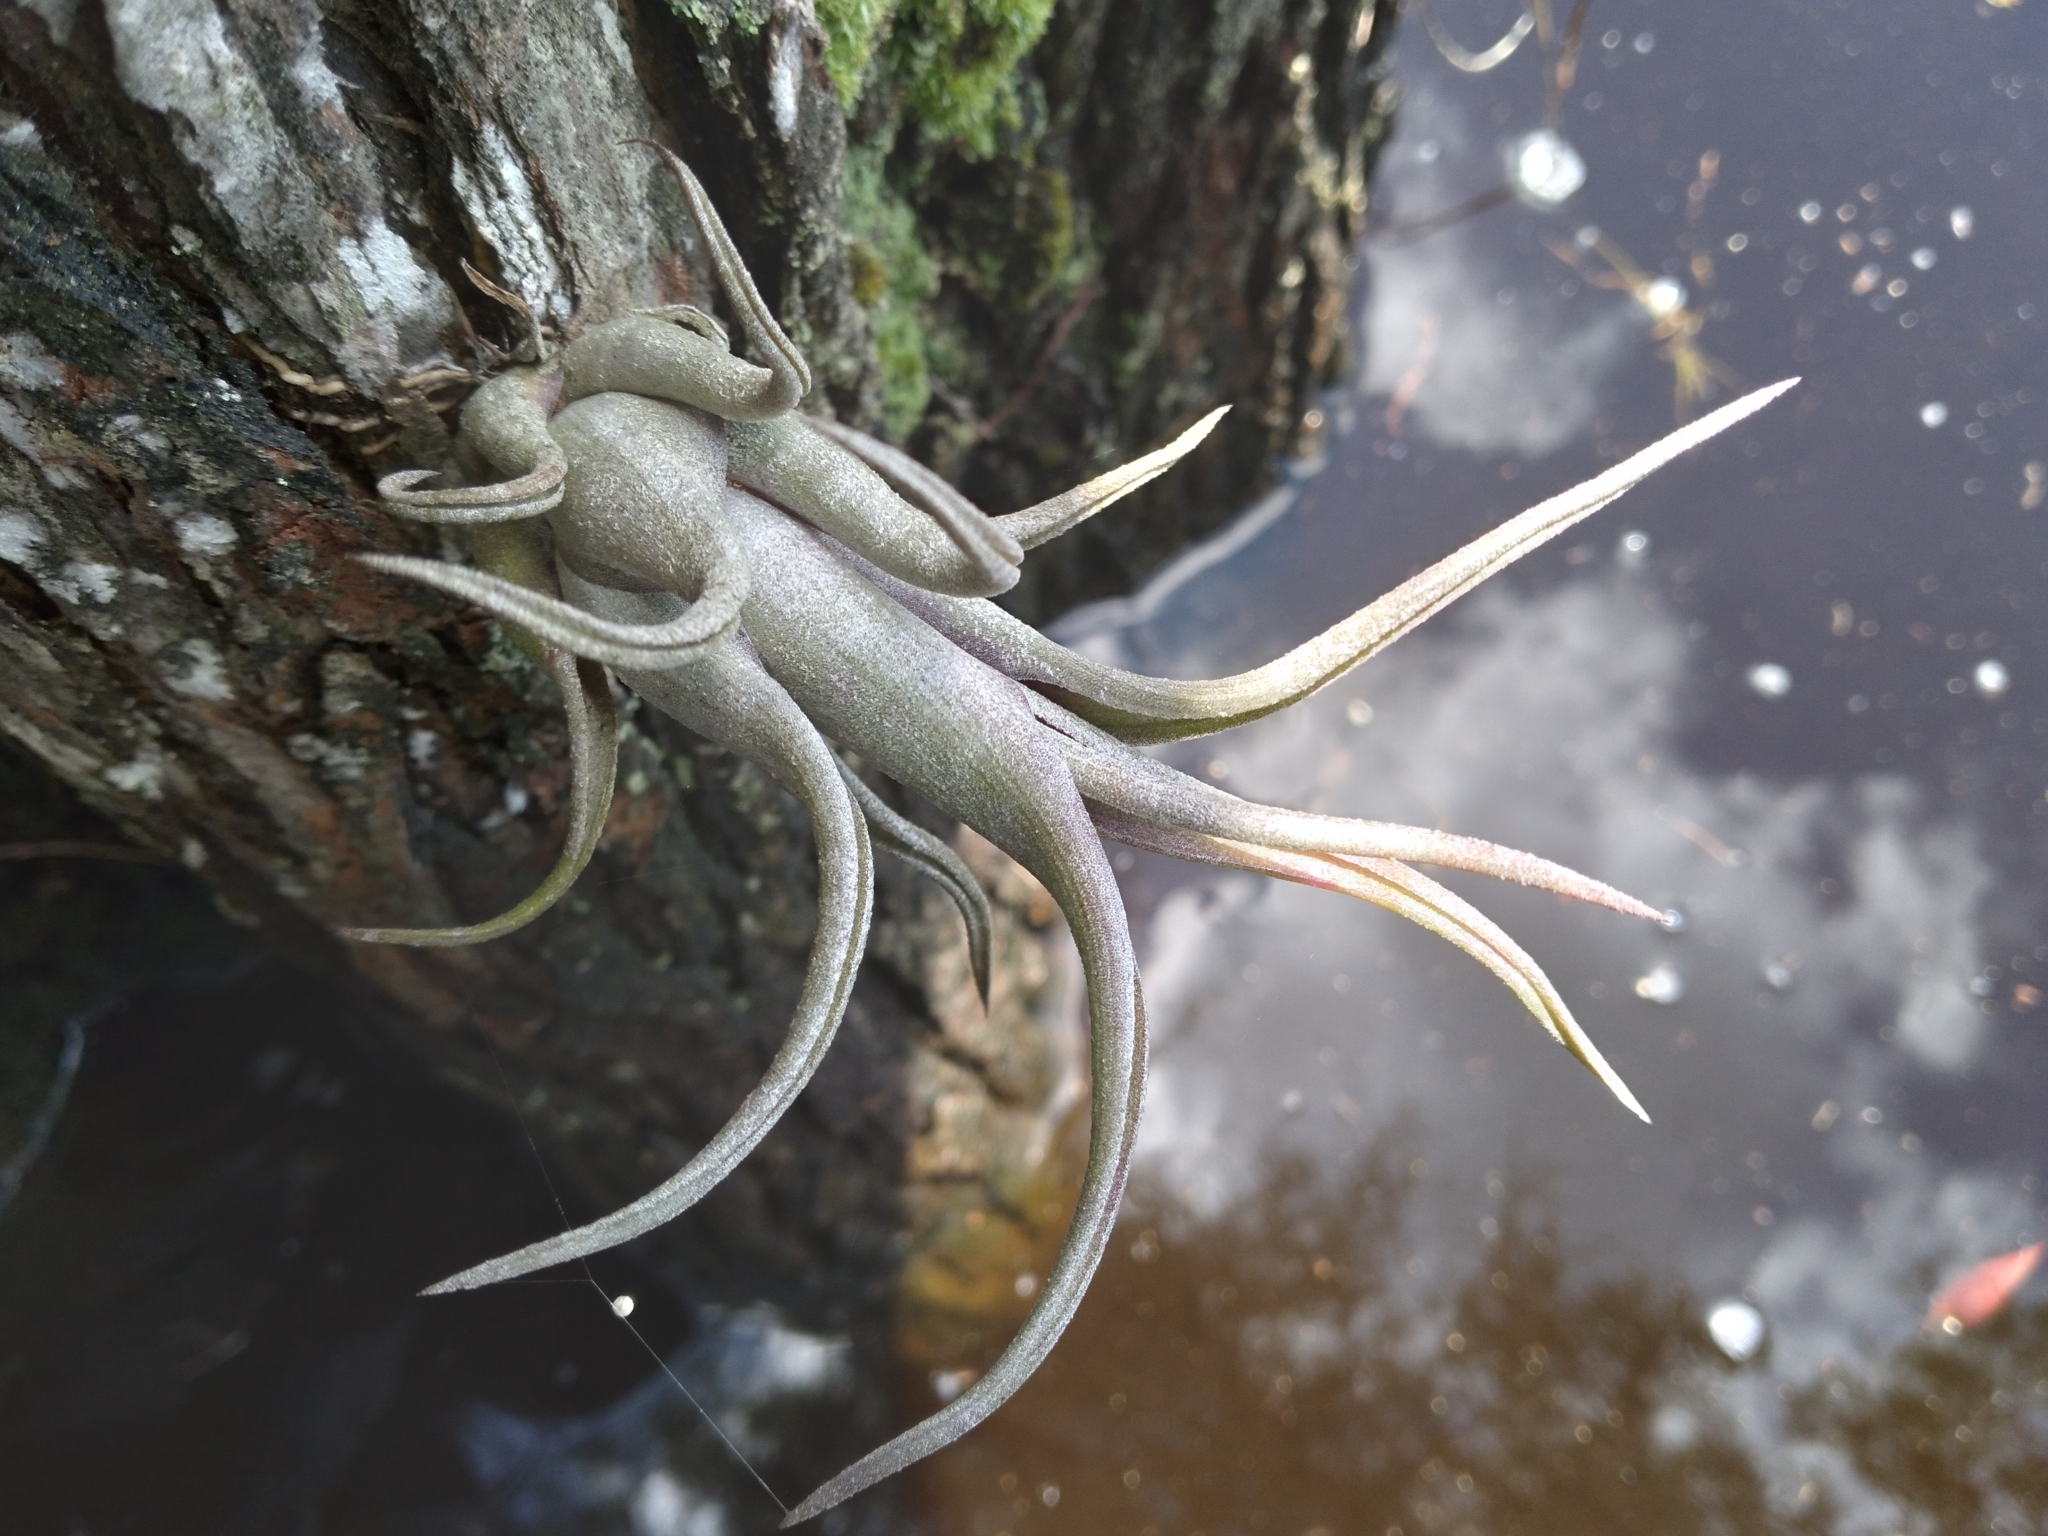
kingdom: Plantae
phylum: Tracheophyta
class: Liliopsida
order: Poales
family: Bromeliaceae
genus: Tillandsia
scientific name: Tillandsia paucifolia
